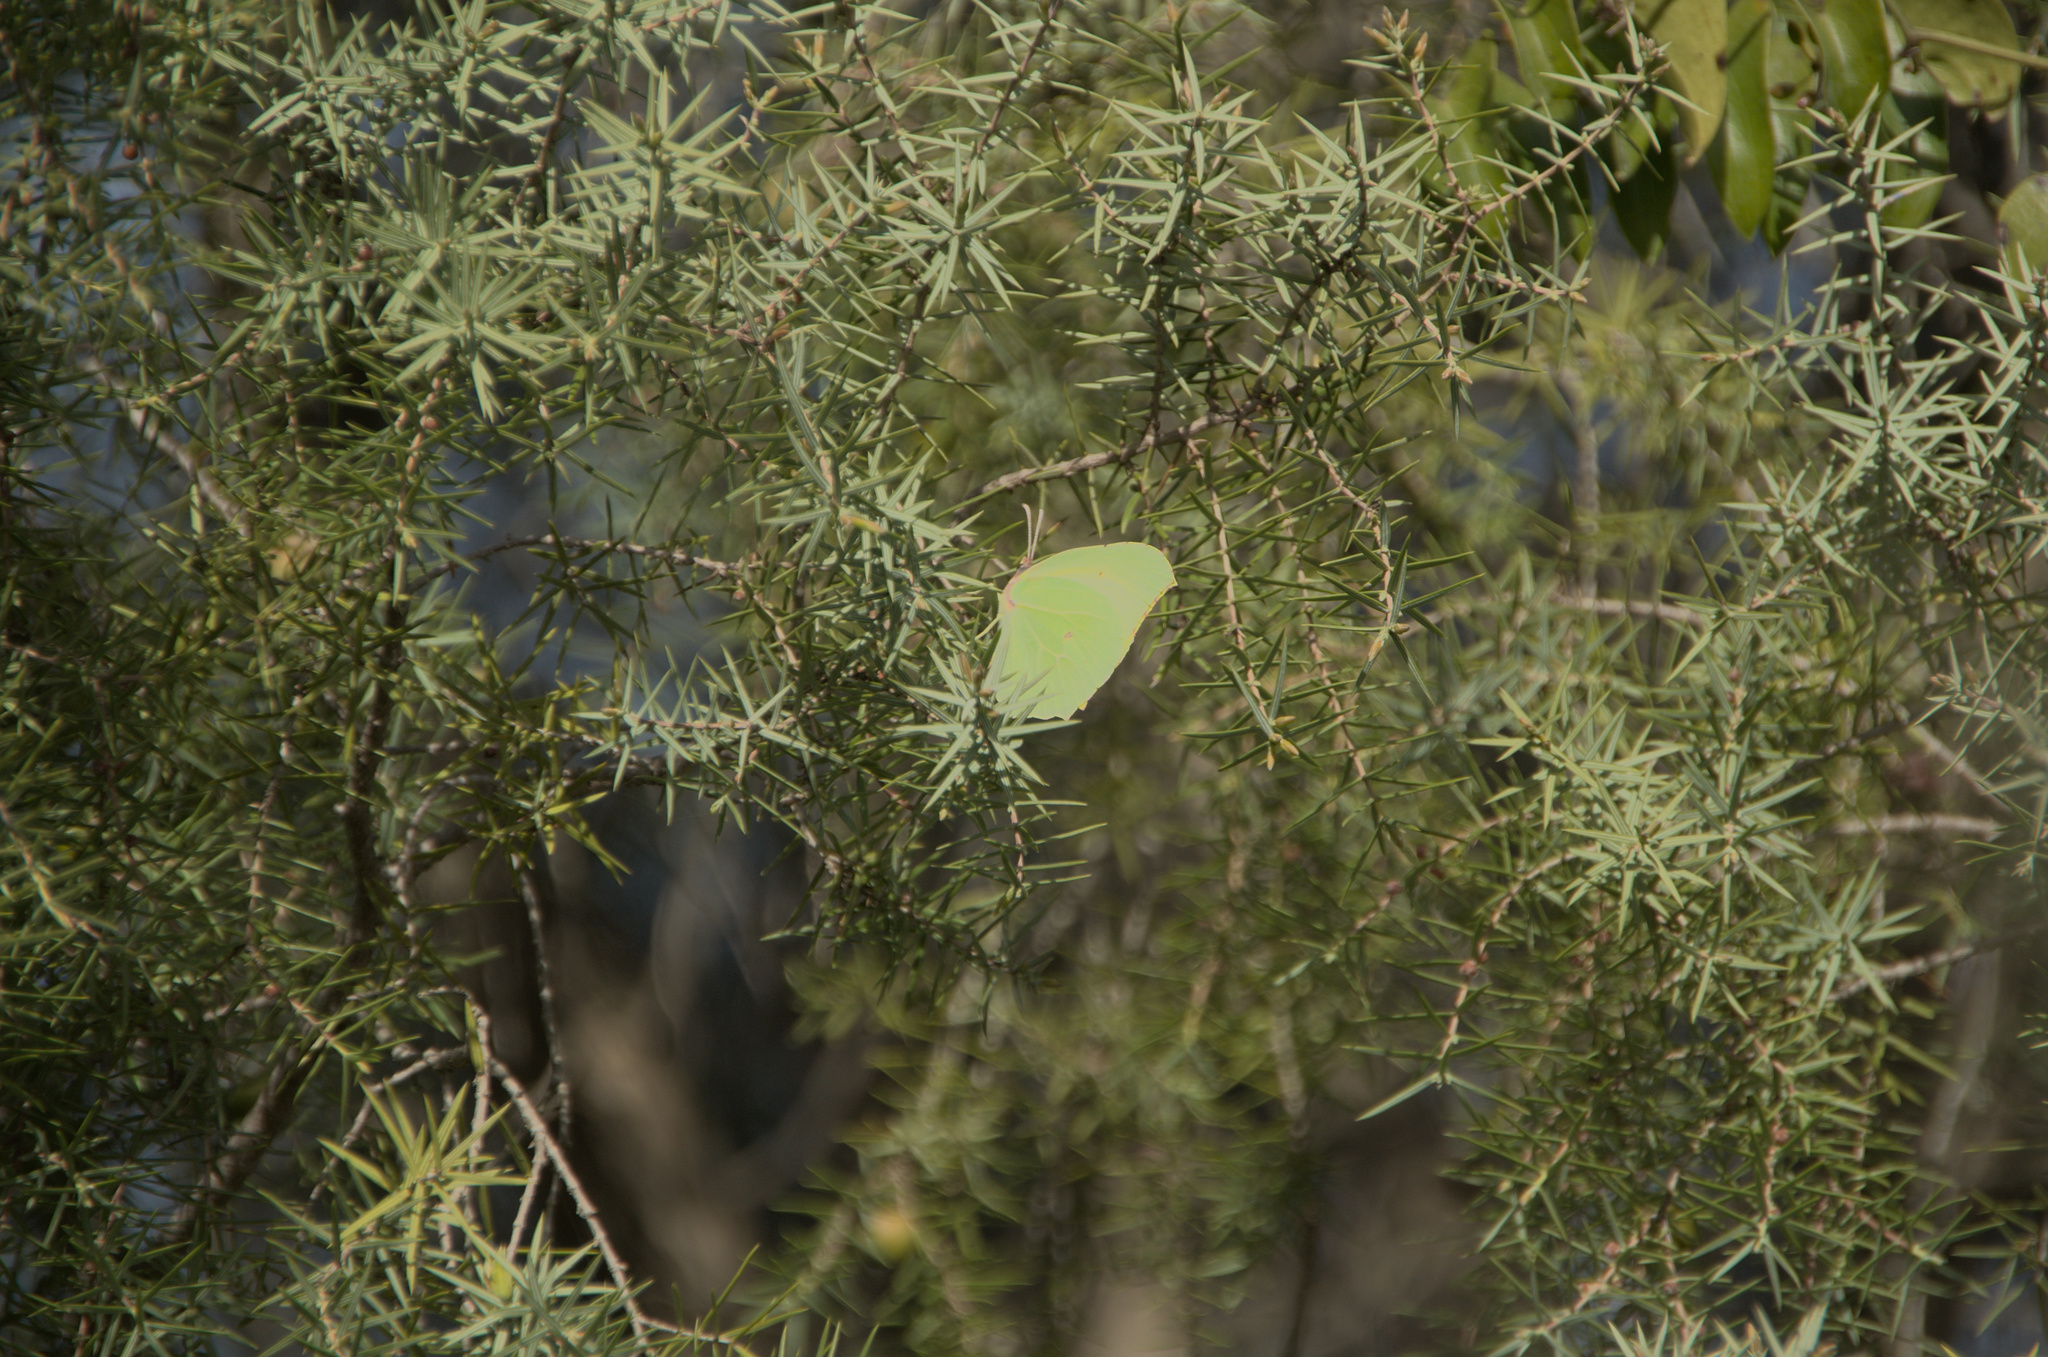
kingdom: Animalia
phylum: Arthropoda
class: Insecta
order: Lepidoptera
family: Pieridae
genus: Gonepteryx
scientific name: Gonepteryx cleopatra
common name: Cleopatra
